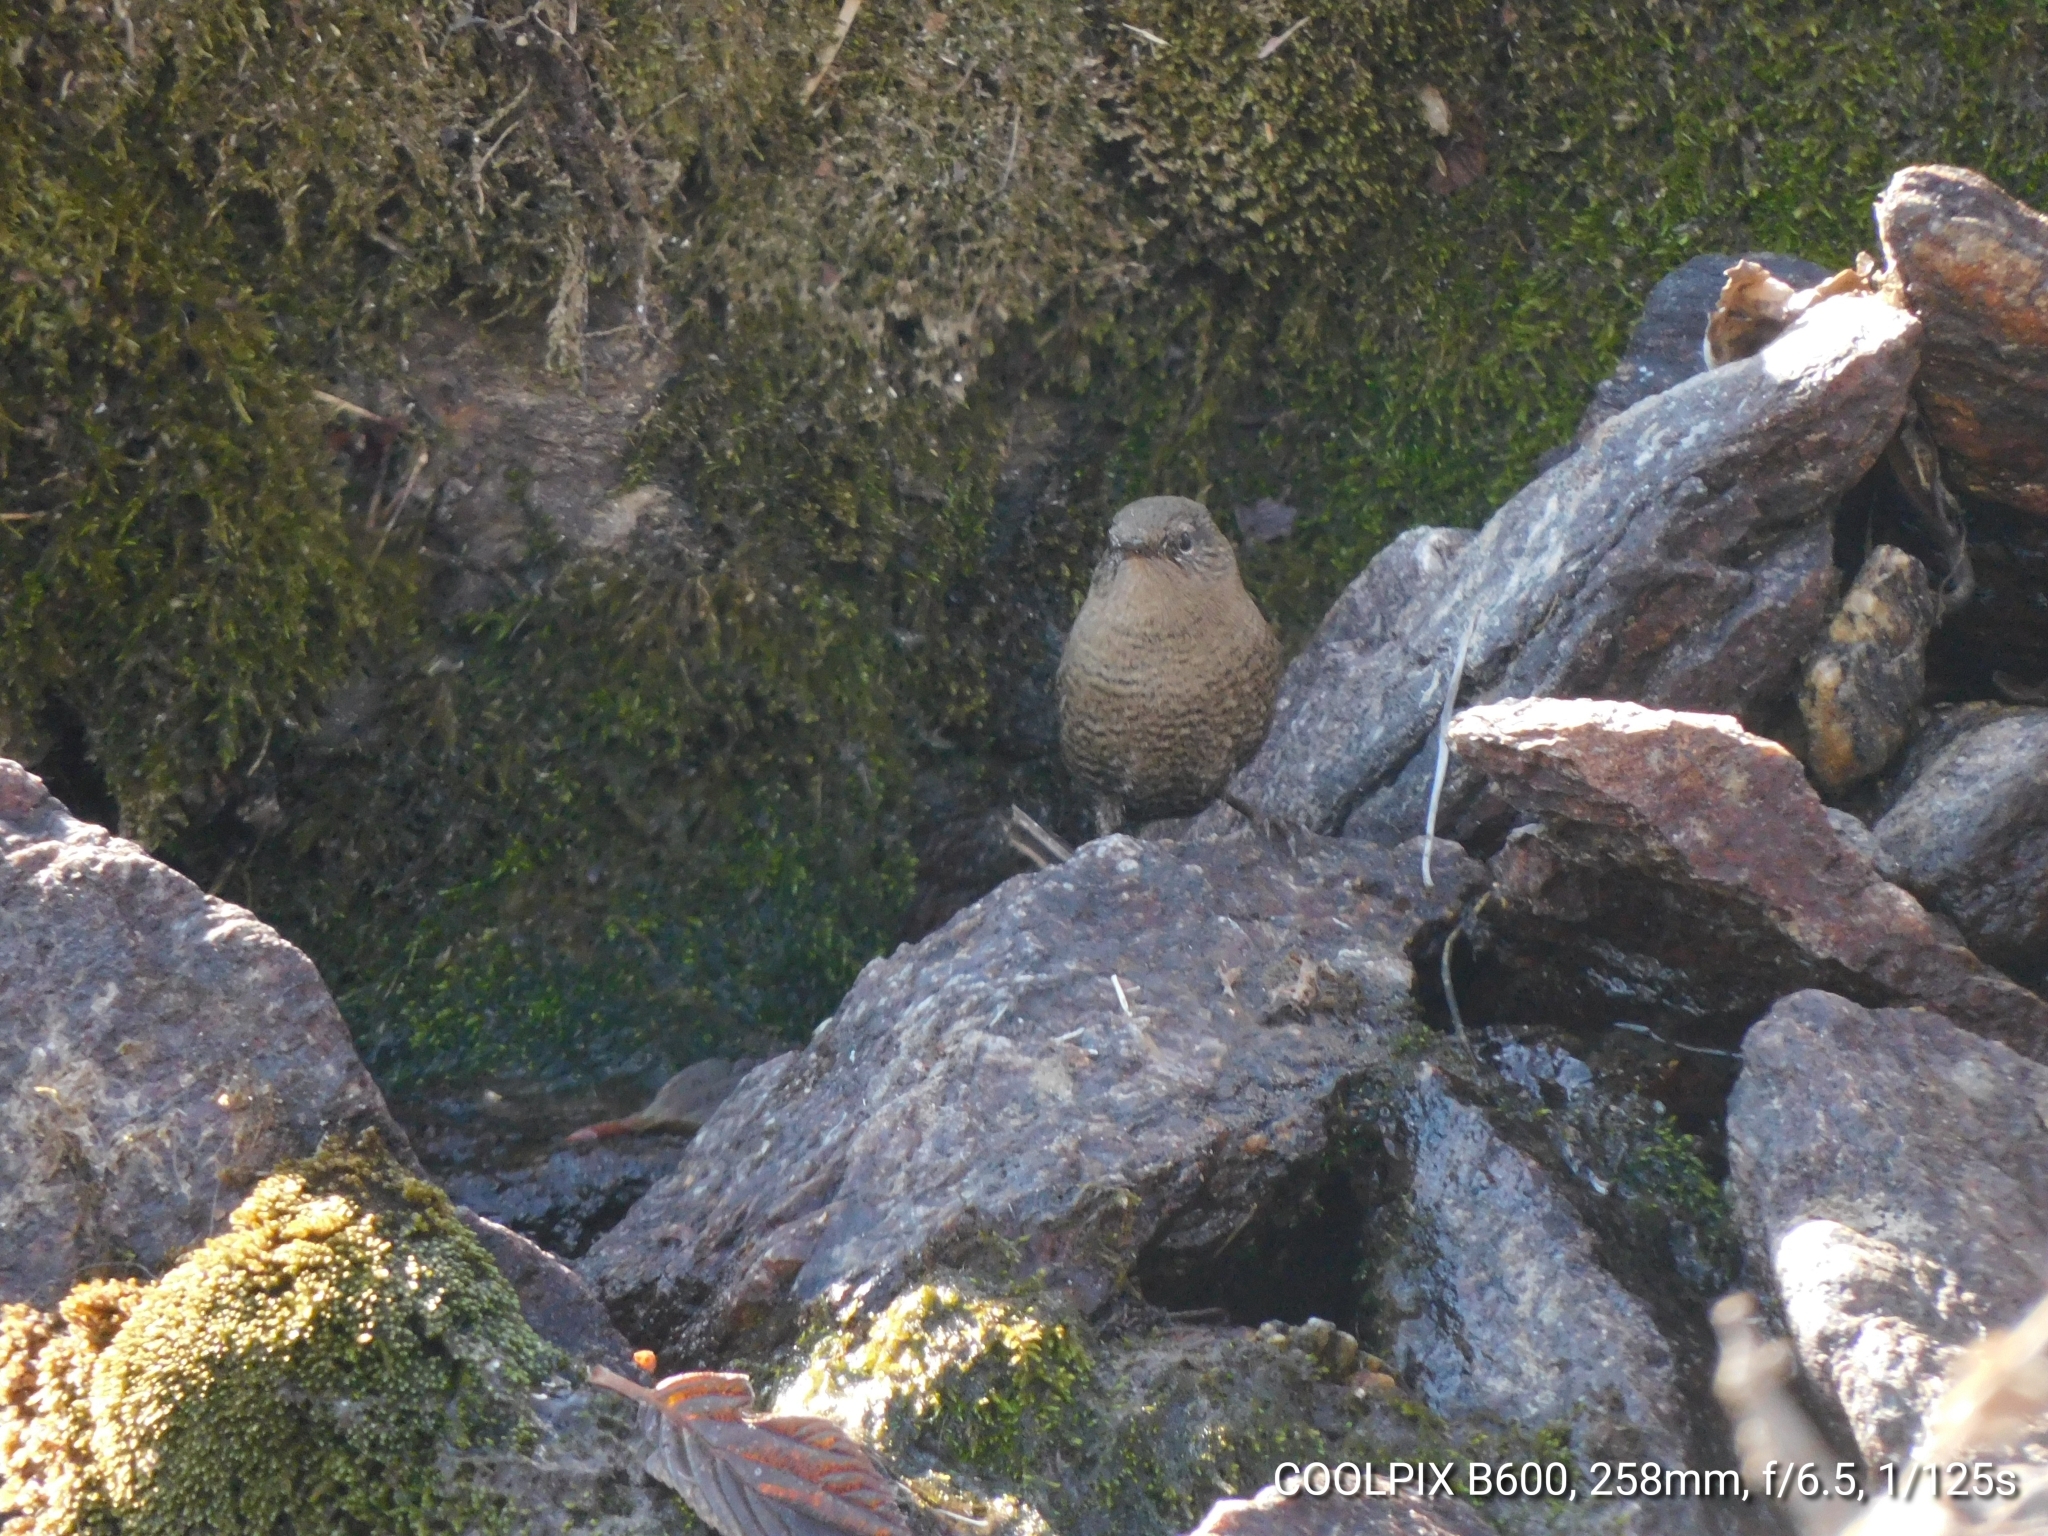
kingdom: Animalia
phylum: Chordata
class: Aves
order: Passeriformes
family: Troglodytidae
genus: Troglodytes
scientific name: Troglodytes troglodytes
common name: Eurasian wren
